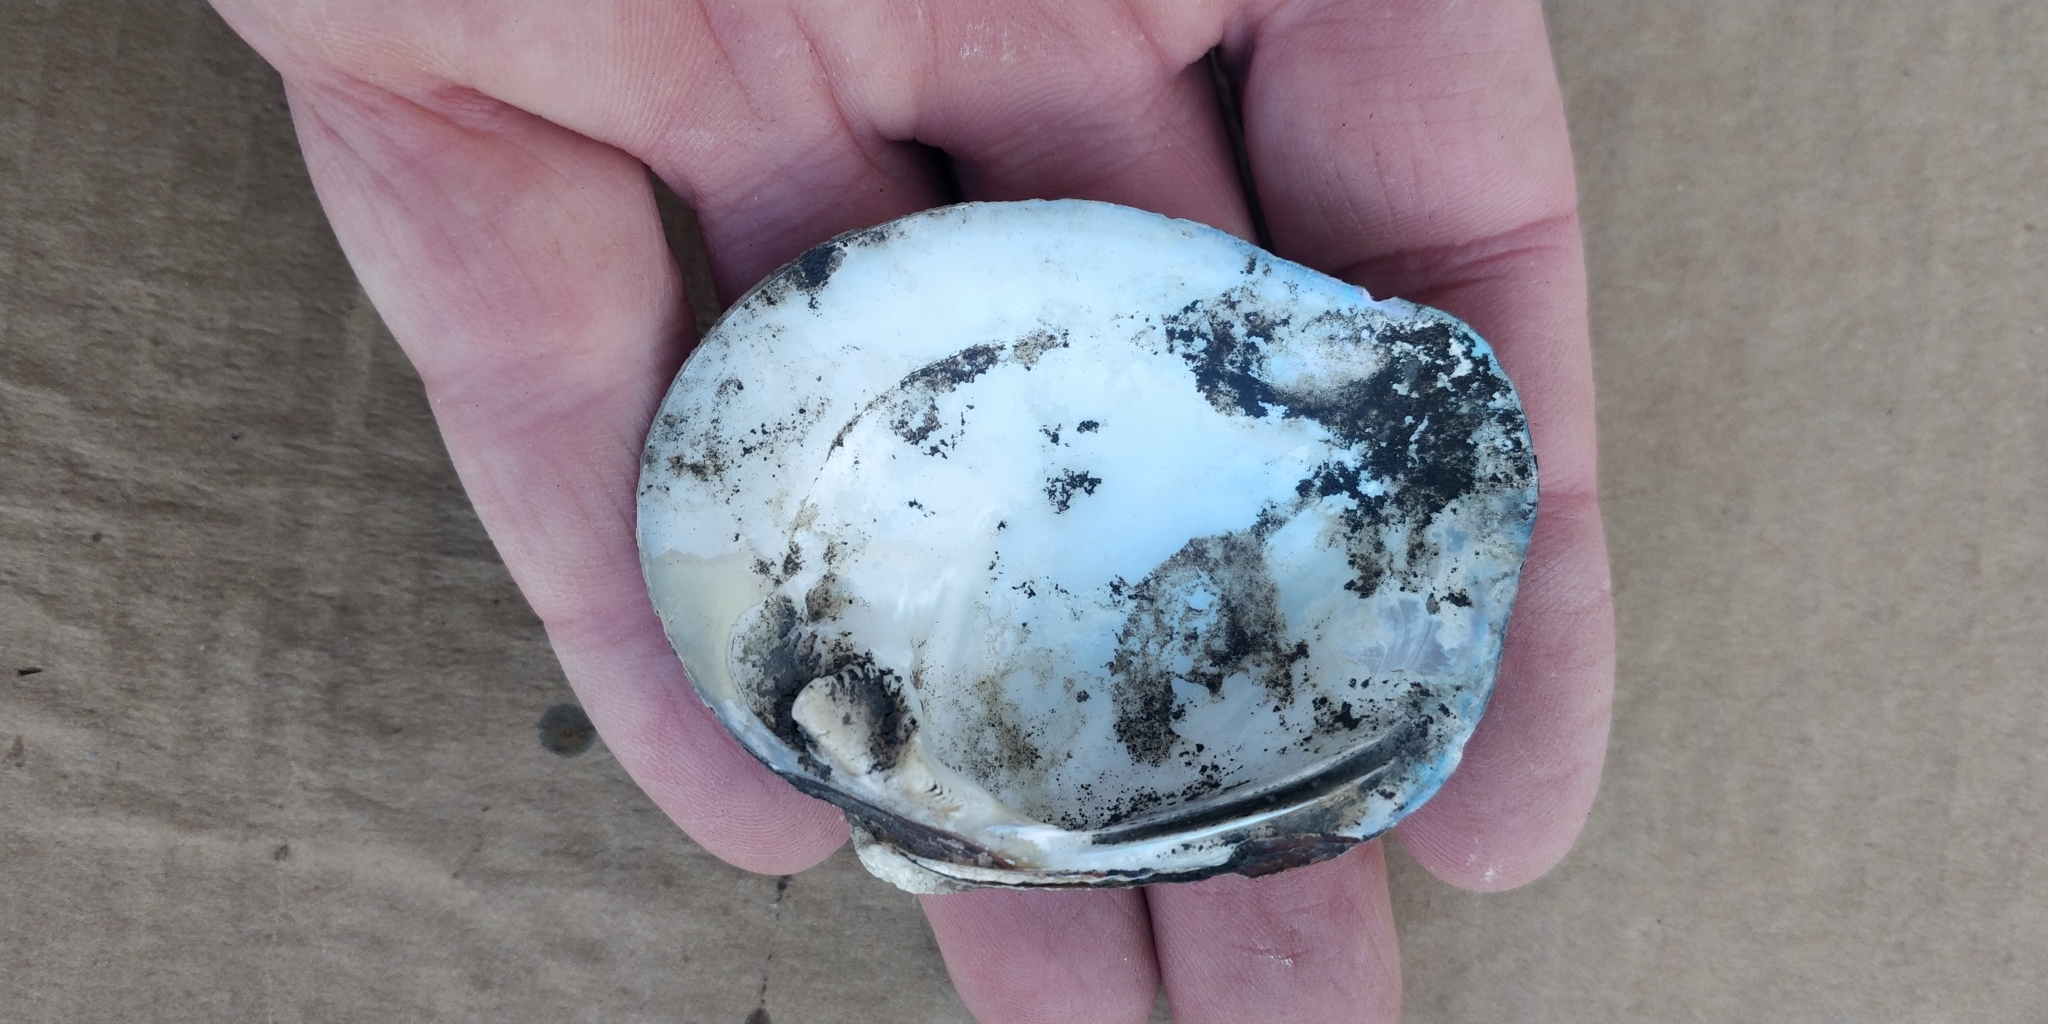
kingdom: Animalia
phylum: Mollusca
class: Bivalvia
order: Unionida
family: Unionidae
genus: Quadrula
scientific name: Quadrula quadrula
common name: Mapleleaf
